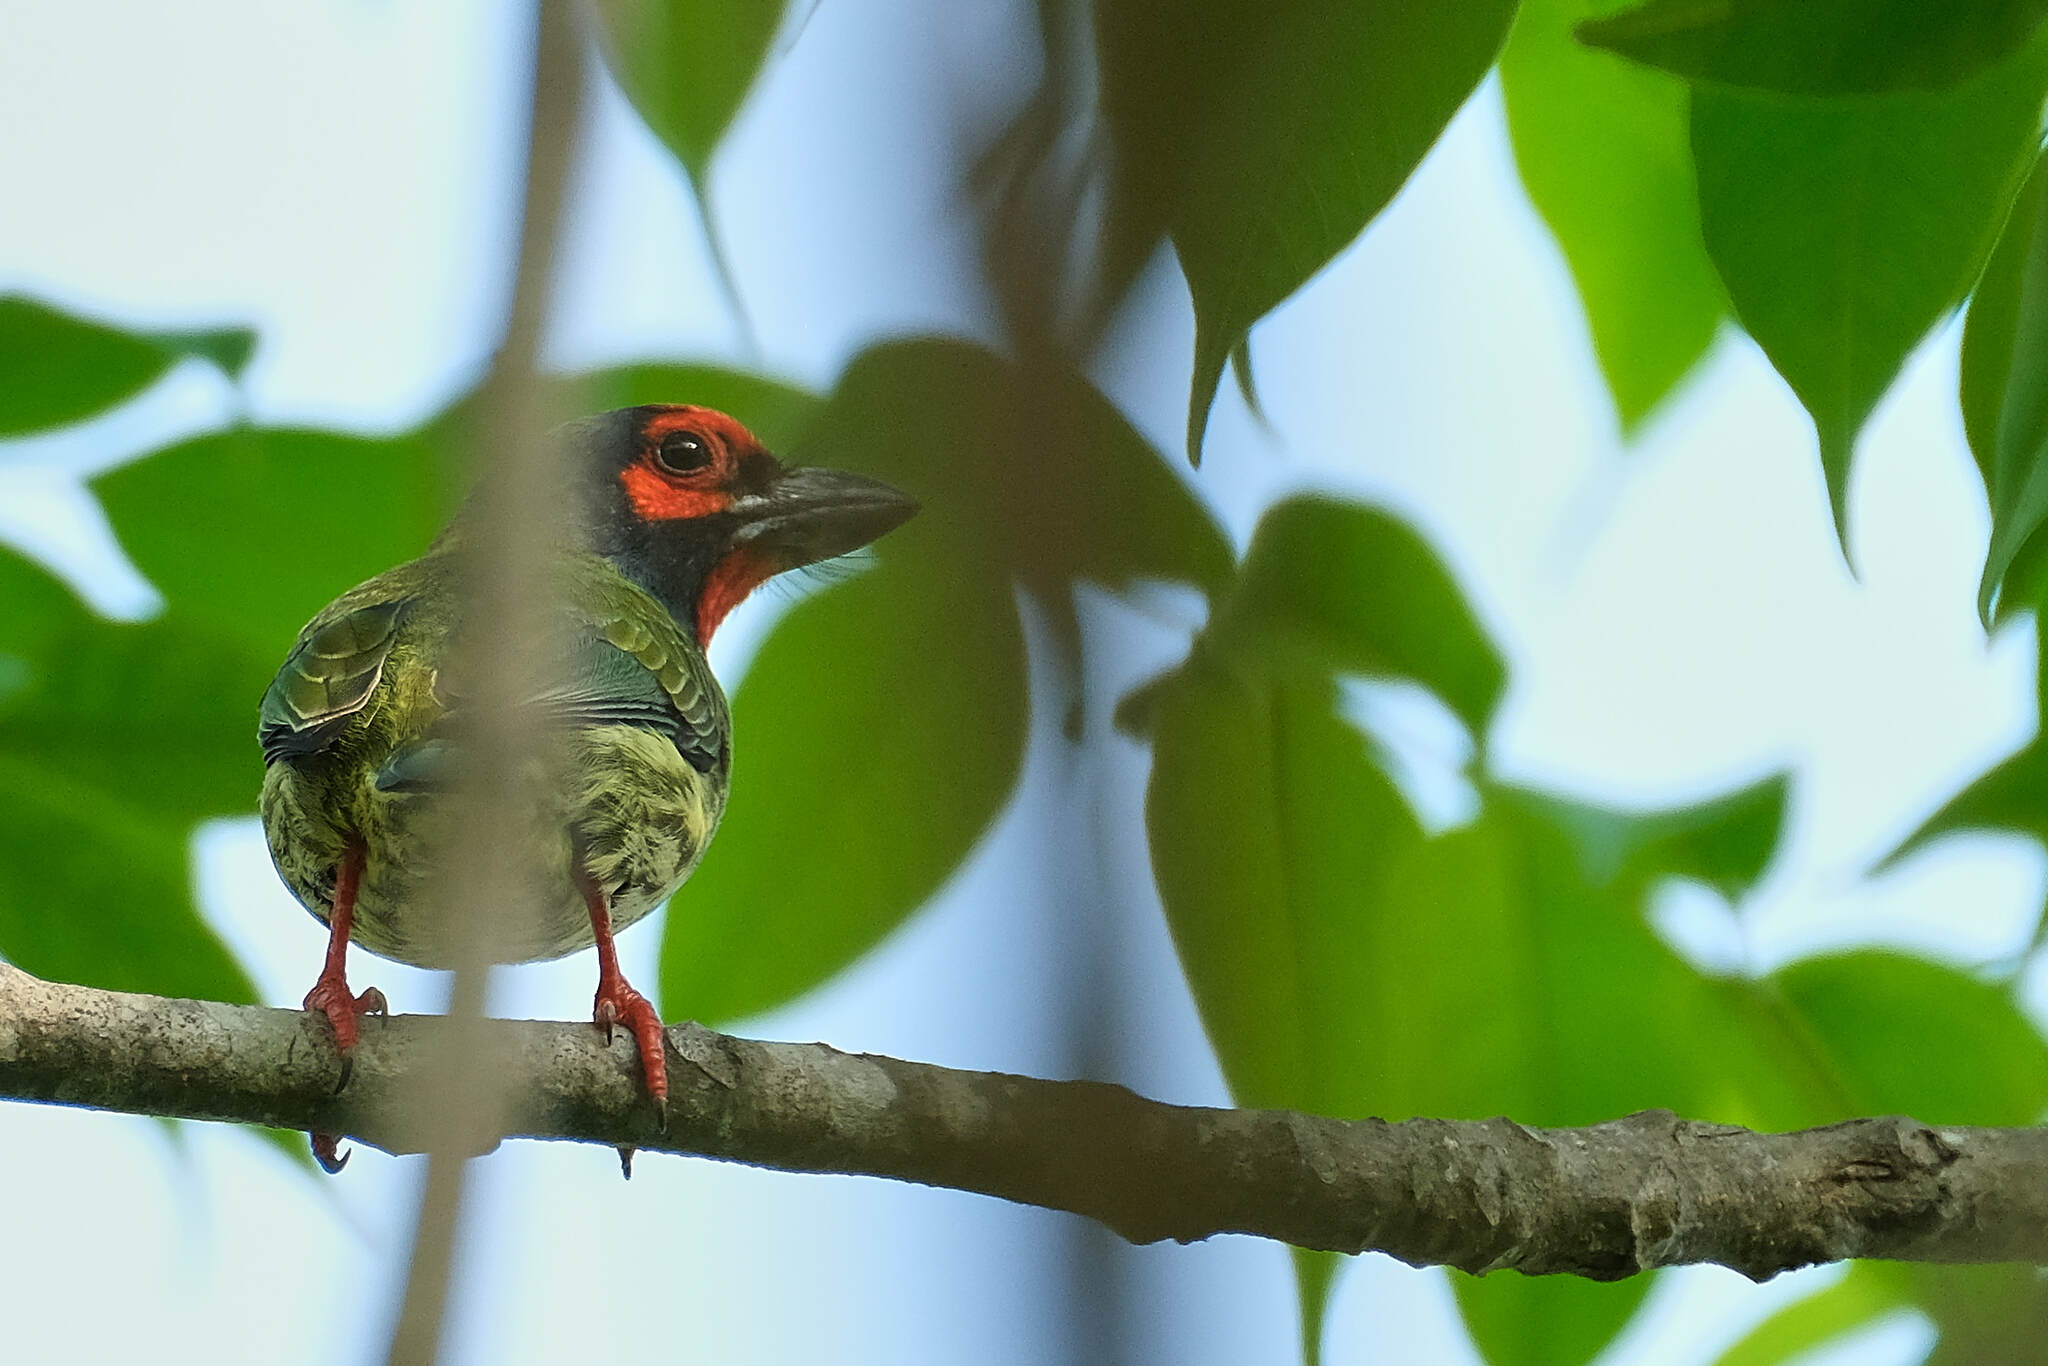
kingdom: Animalia
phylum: Chordata
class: Aves
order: Piciformes
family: Megalaimidae
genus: Psilopogon
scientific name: Psilopogon haemacephalus
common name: Coppersmith barbet
